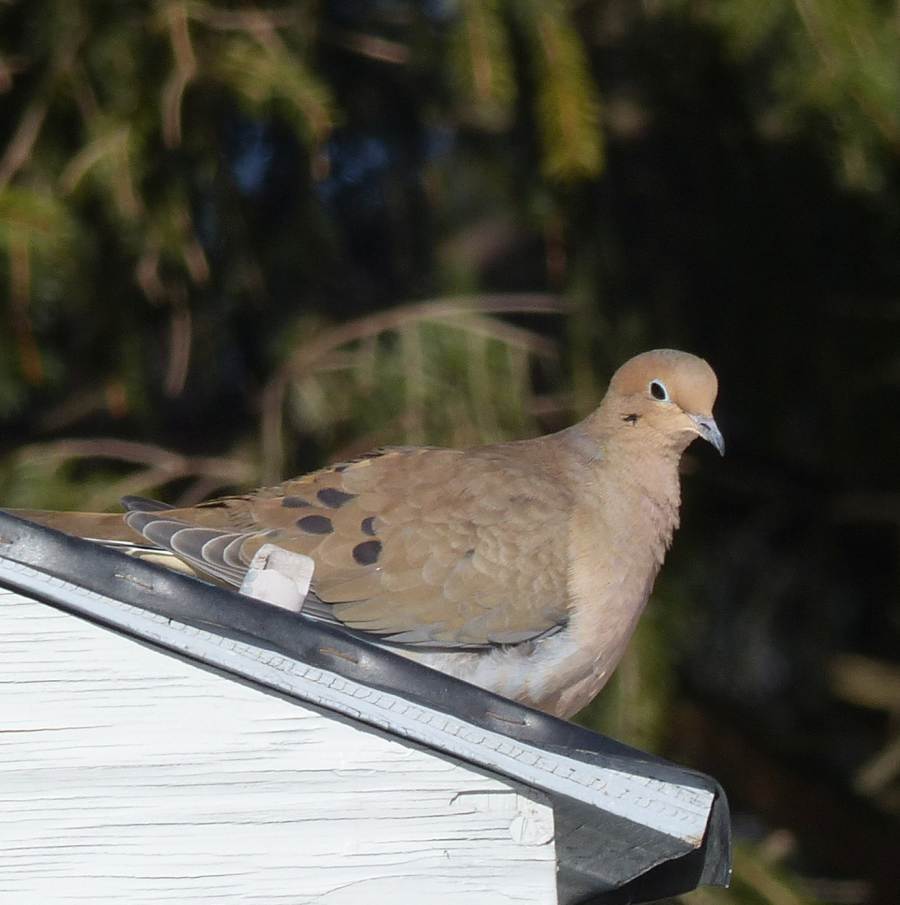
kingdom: Animalia
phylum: Chordata
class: Aves
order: Columbiformes
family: Columbidae
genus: Zenaida
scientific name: Zenaida macroura
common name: Mourning dove
